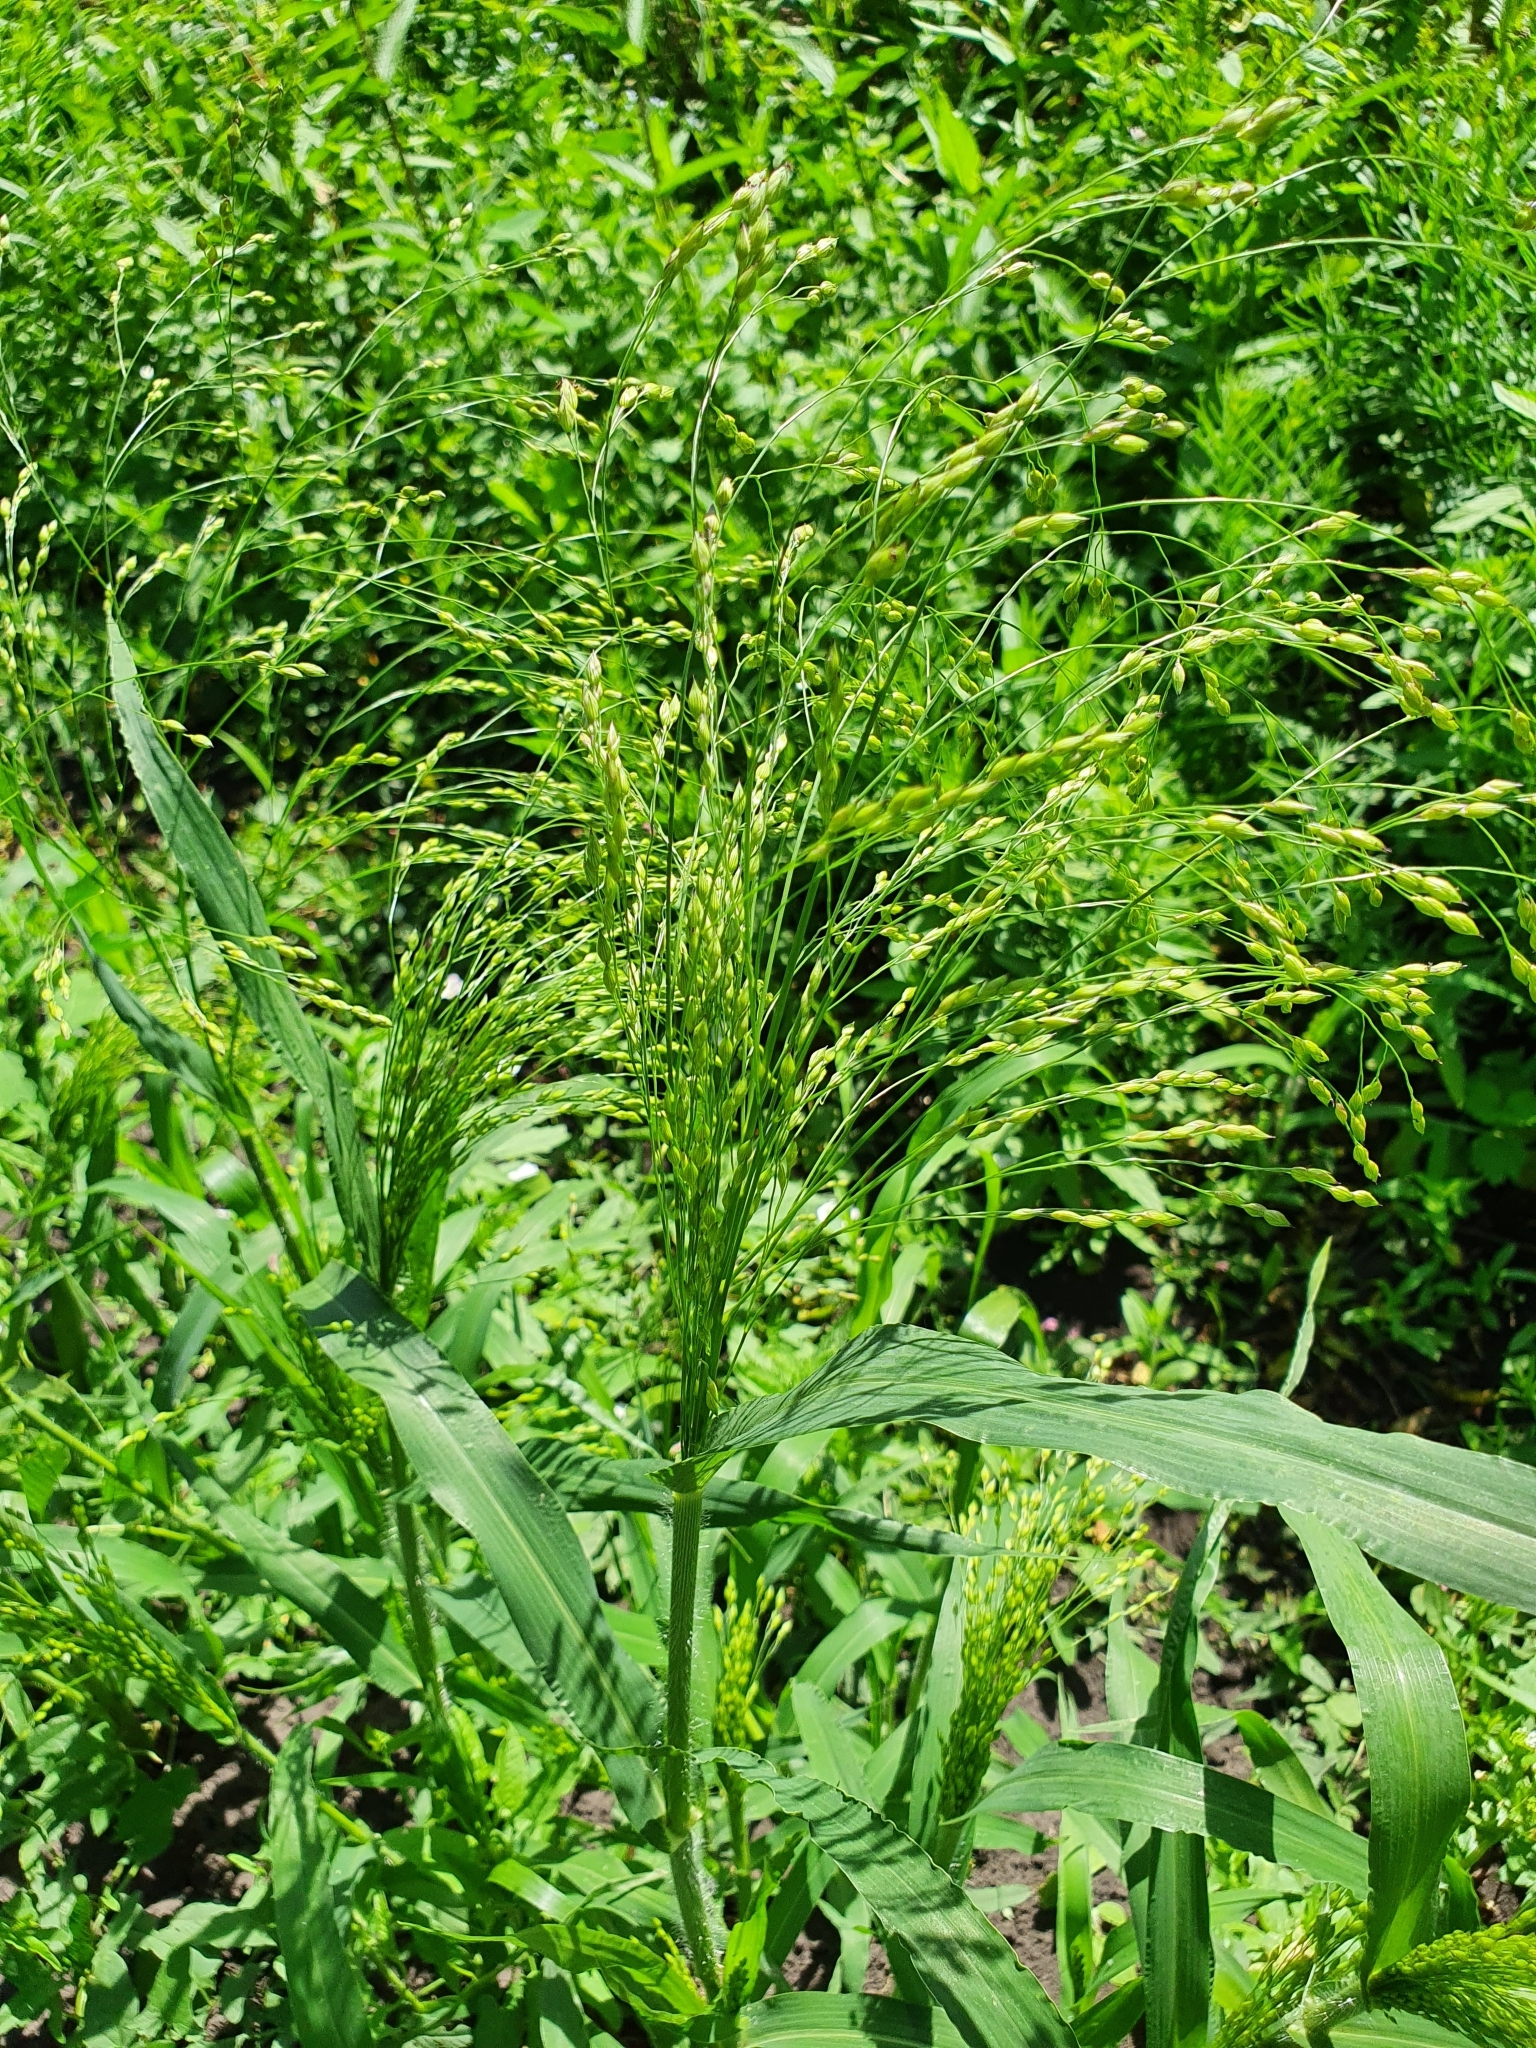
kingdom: Plantae
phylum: Tracheophyta
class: Liliopsida
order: Poales
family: Poaceae
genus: Panicum
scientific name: Panicum miliaceum
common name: Common millet
